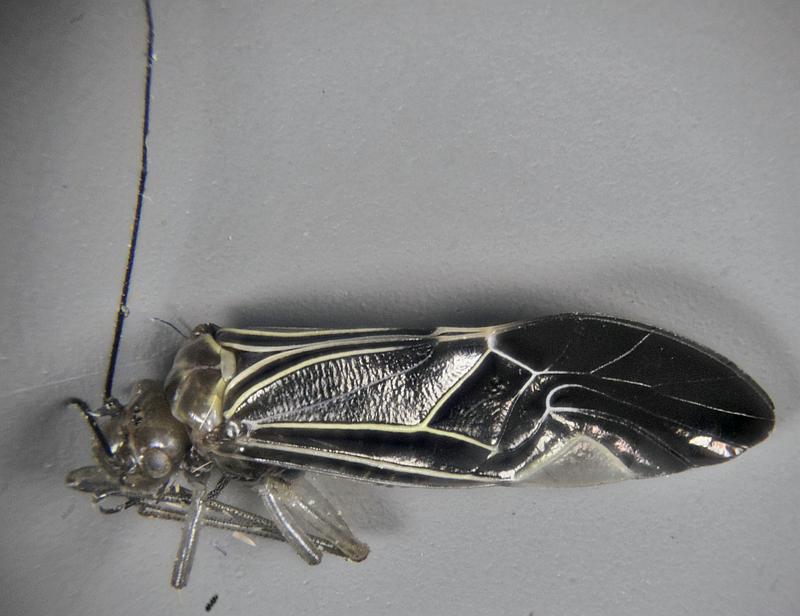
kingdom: Animalia
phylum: Arthropoda
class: Insecta
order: Psocodea
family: Psocidae
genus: Cerastipsocus
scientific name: Cerastipsocus venosus
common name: Tree cattle
